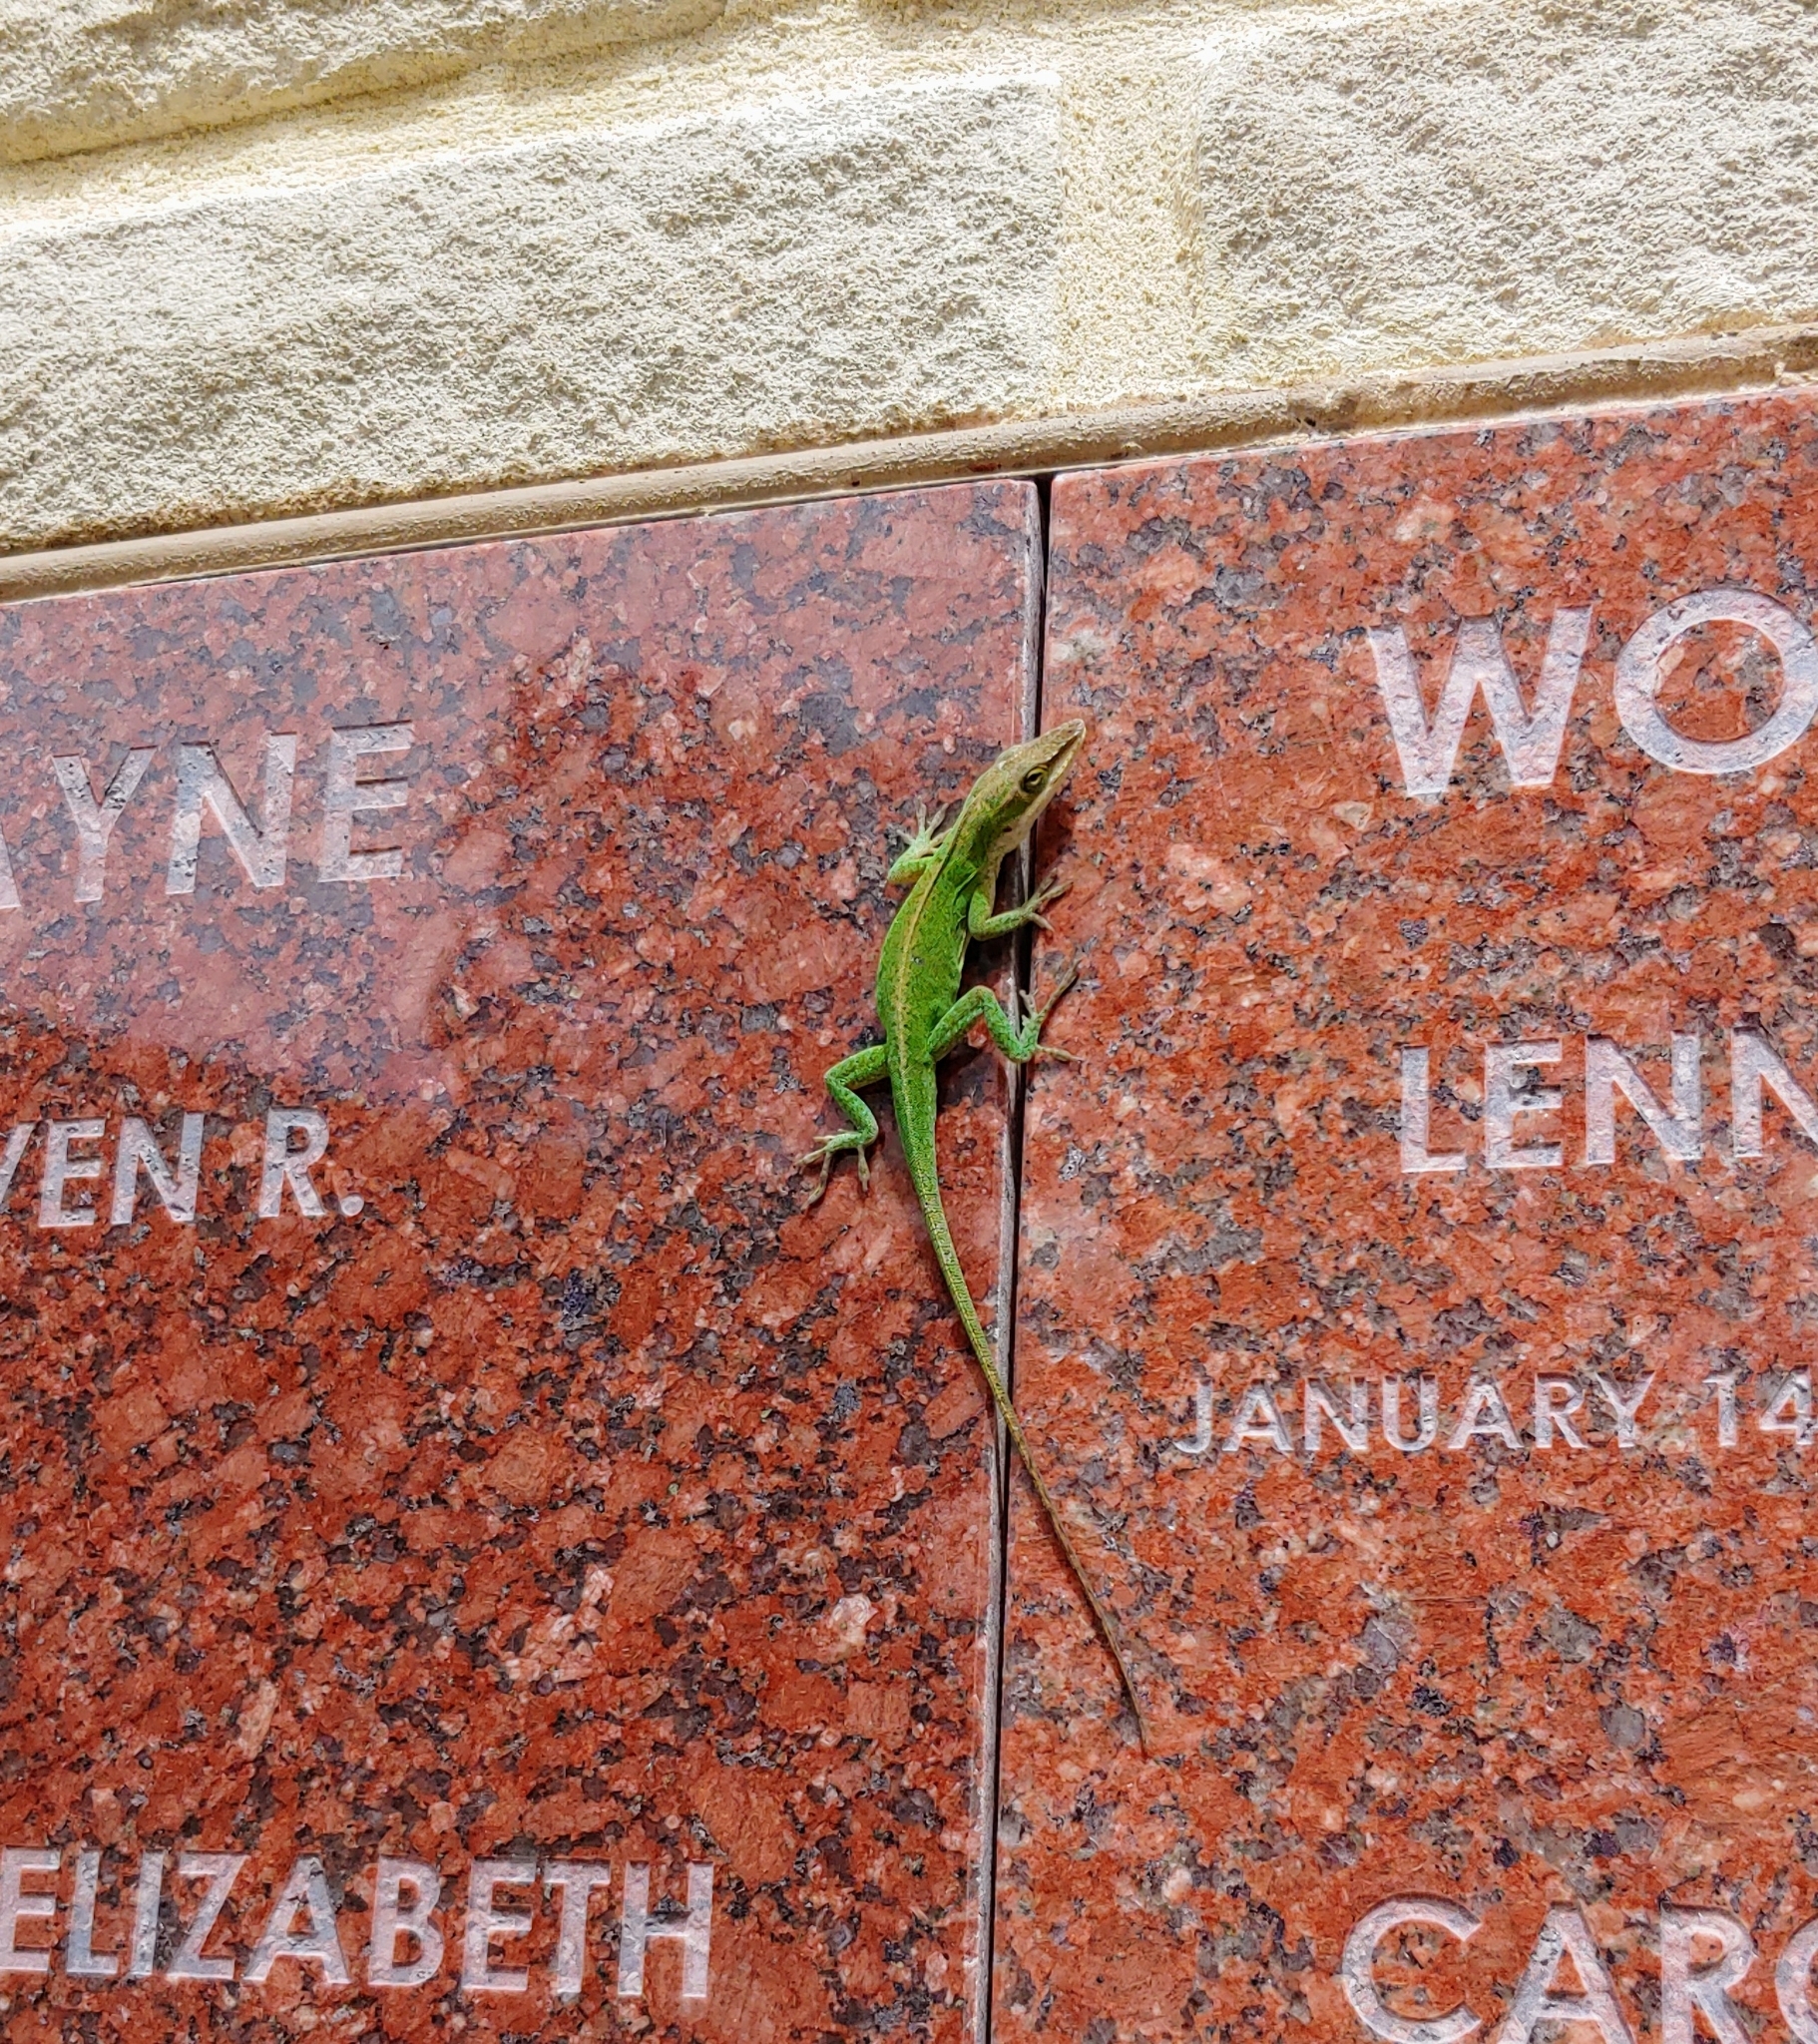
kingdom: Animalia
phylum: Chordata
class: Squamata
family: Dactyloidae
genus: Anolis
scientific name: Anolis carolinensis
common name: Green anole
